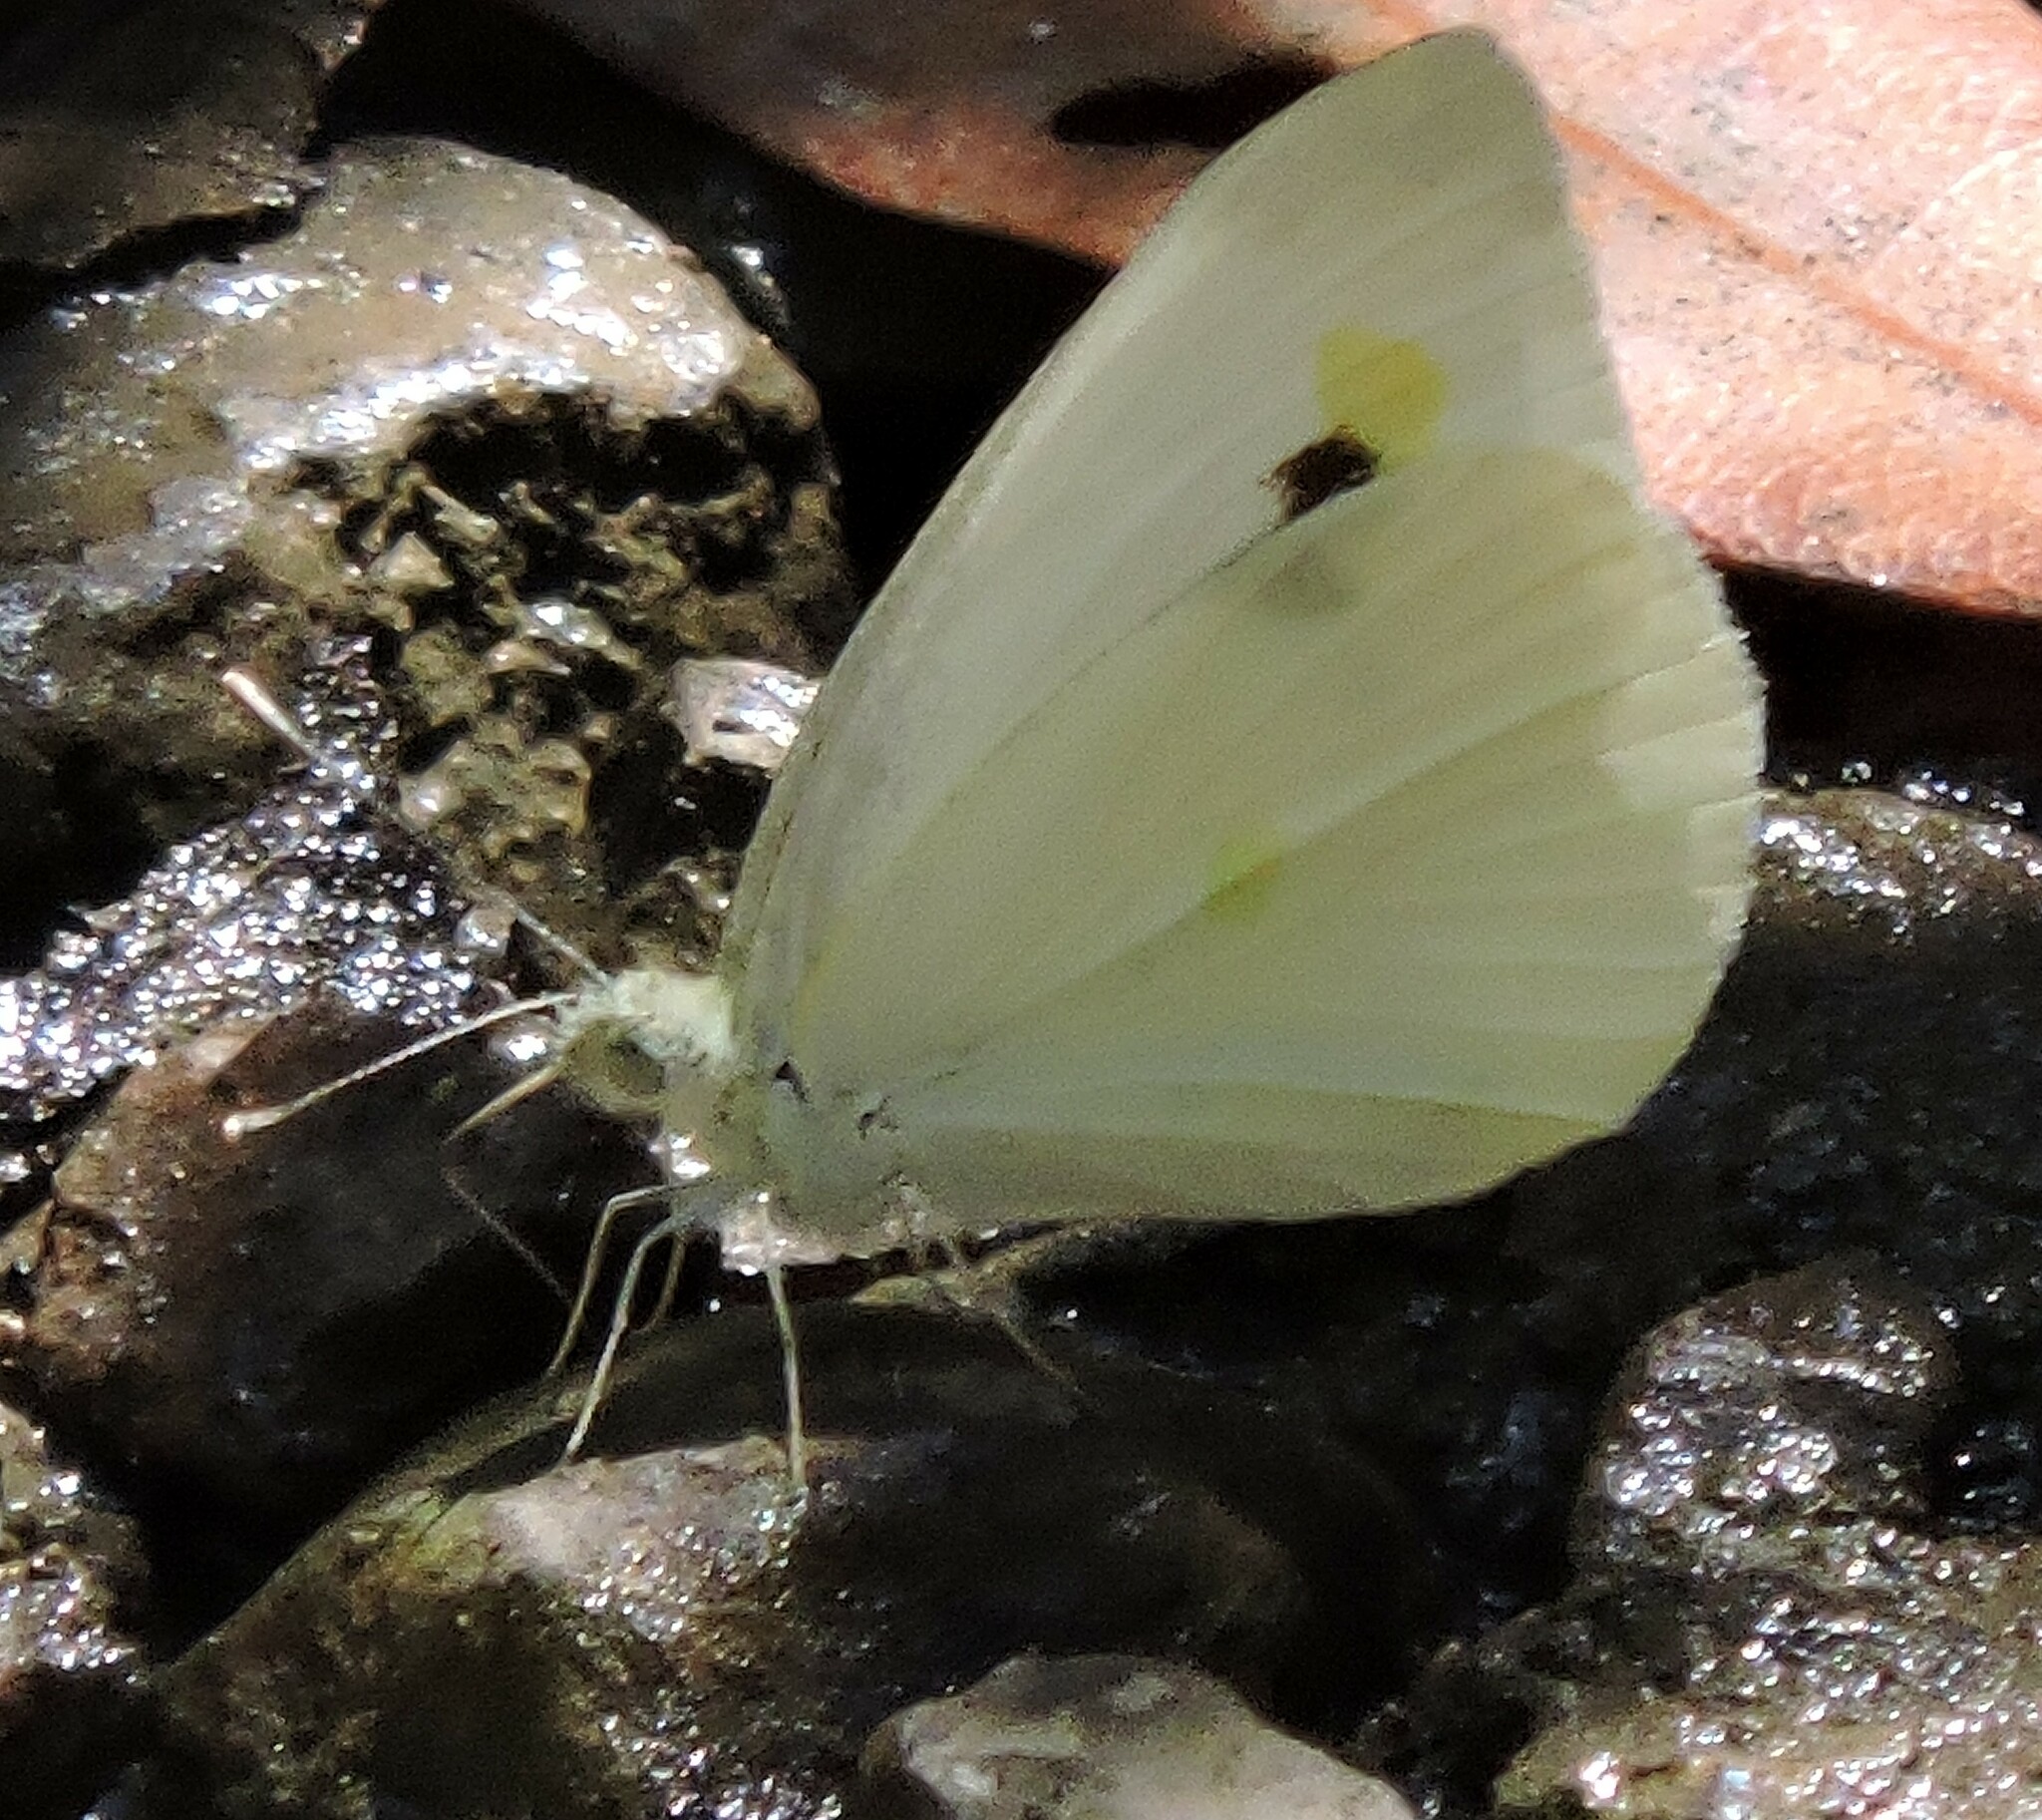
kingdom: Animalia
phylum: Arthropoda
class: Insecta
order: Lepidoptera
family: Pieridae
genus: Pieris
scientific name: Pieris rapae
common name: Small white
